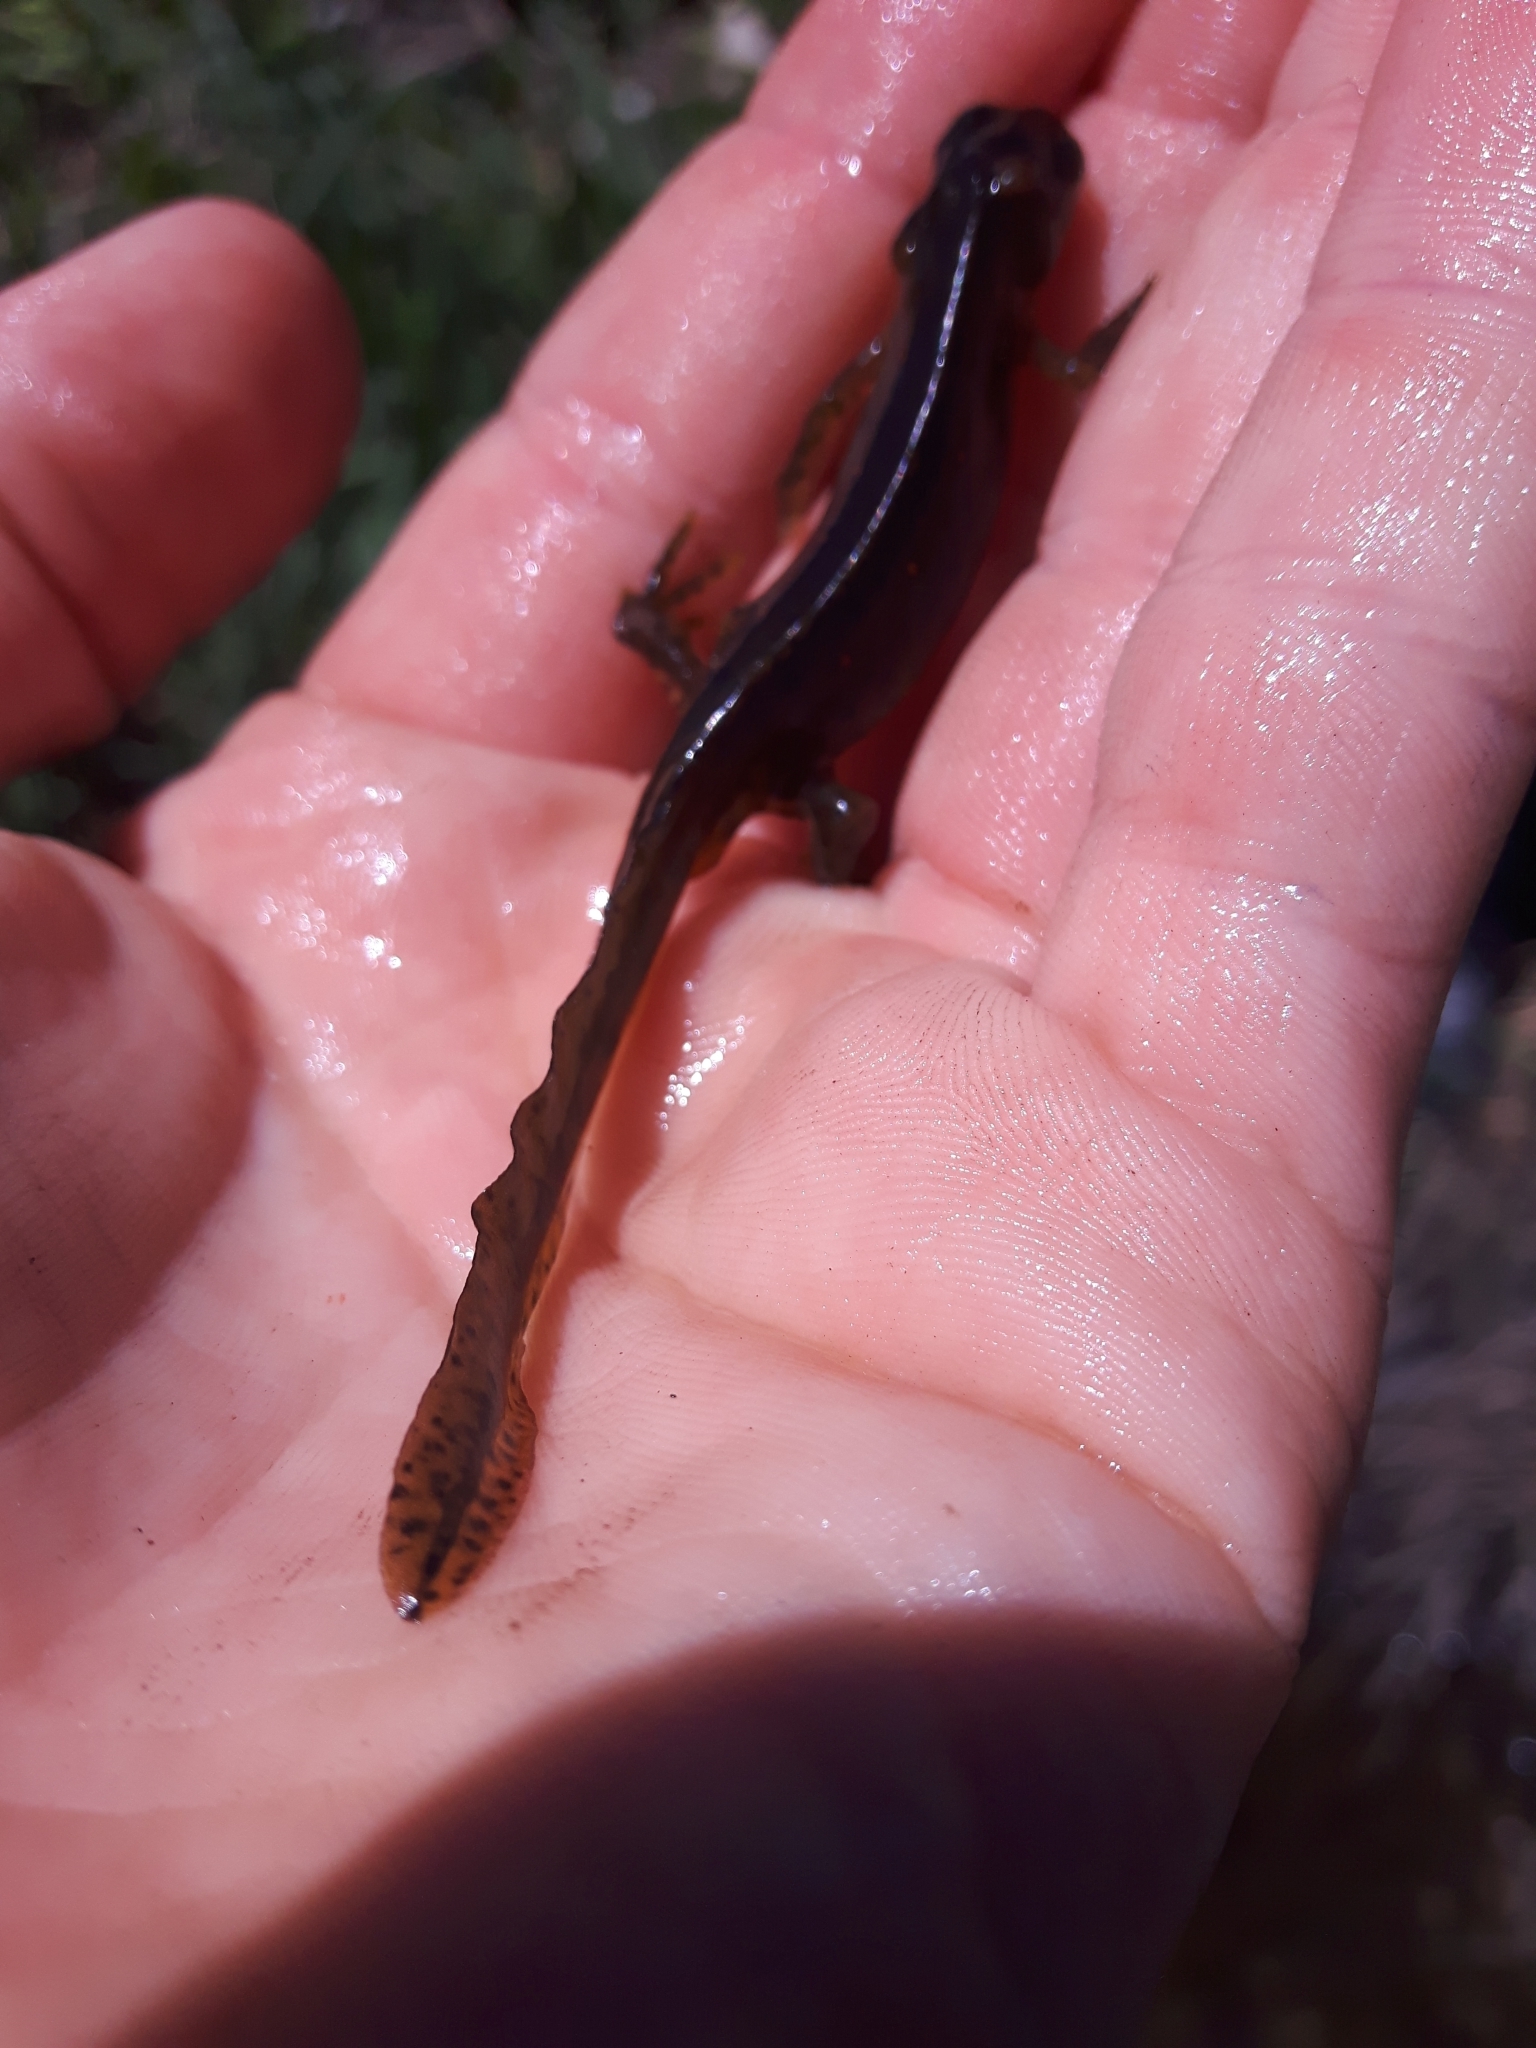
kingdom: Animalia
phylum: Chordata
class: Amphibia
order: Caudata
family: Salamandridae
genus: Notophthalmus
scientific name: Notophthalmus viridescens
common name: Eastern newt
